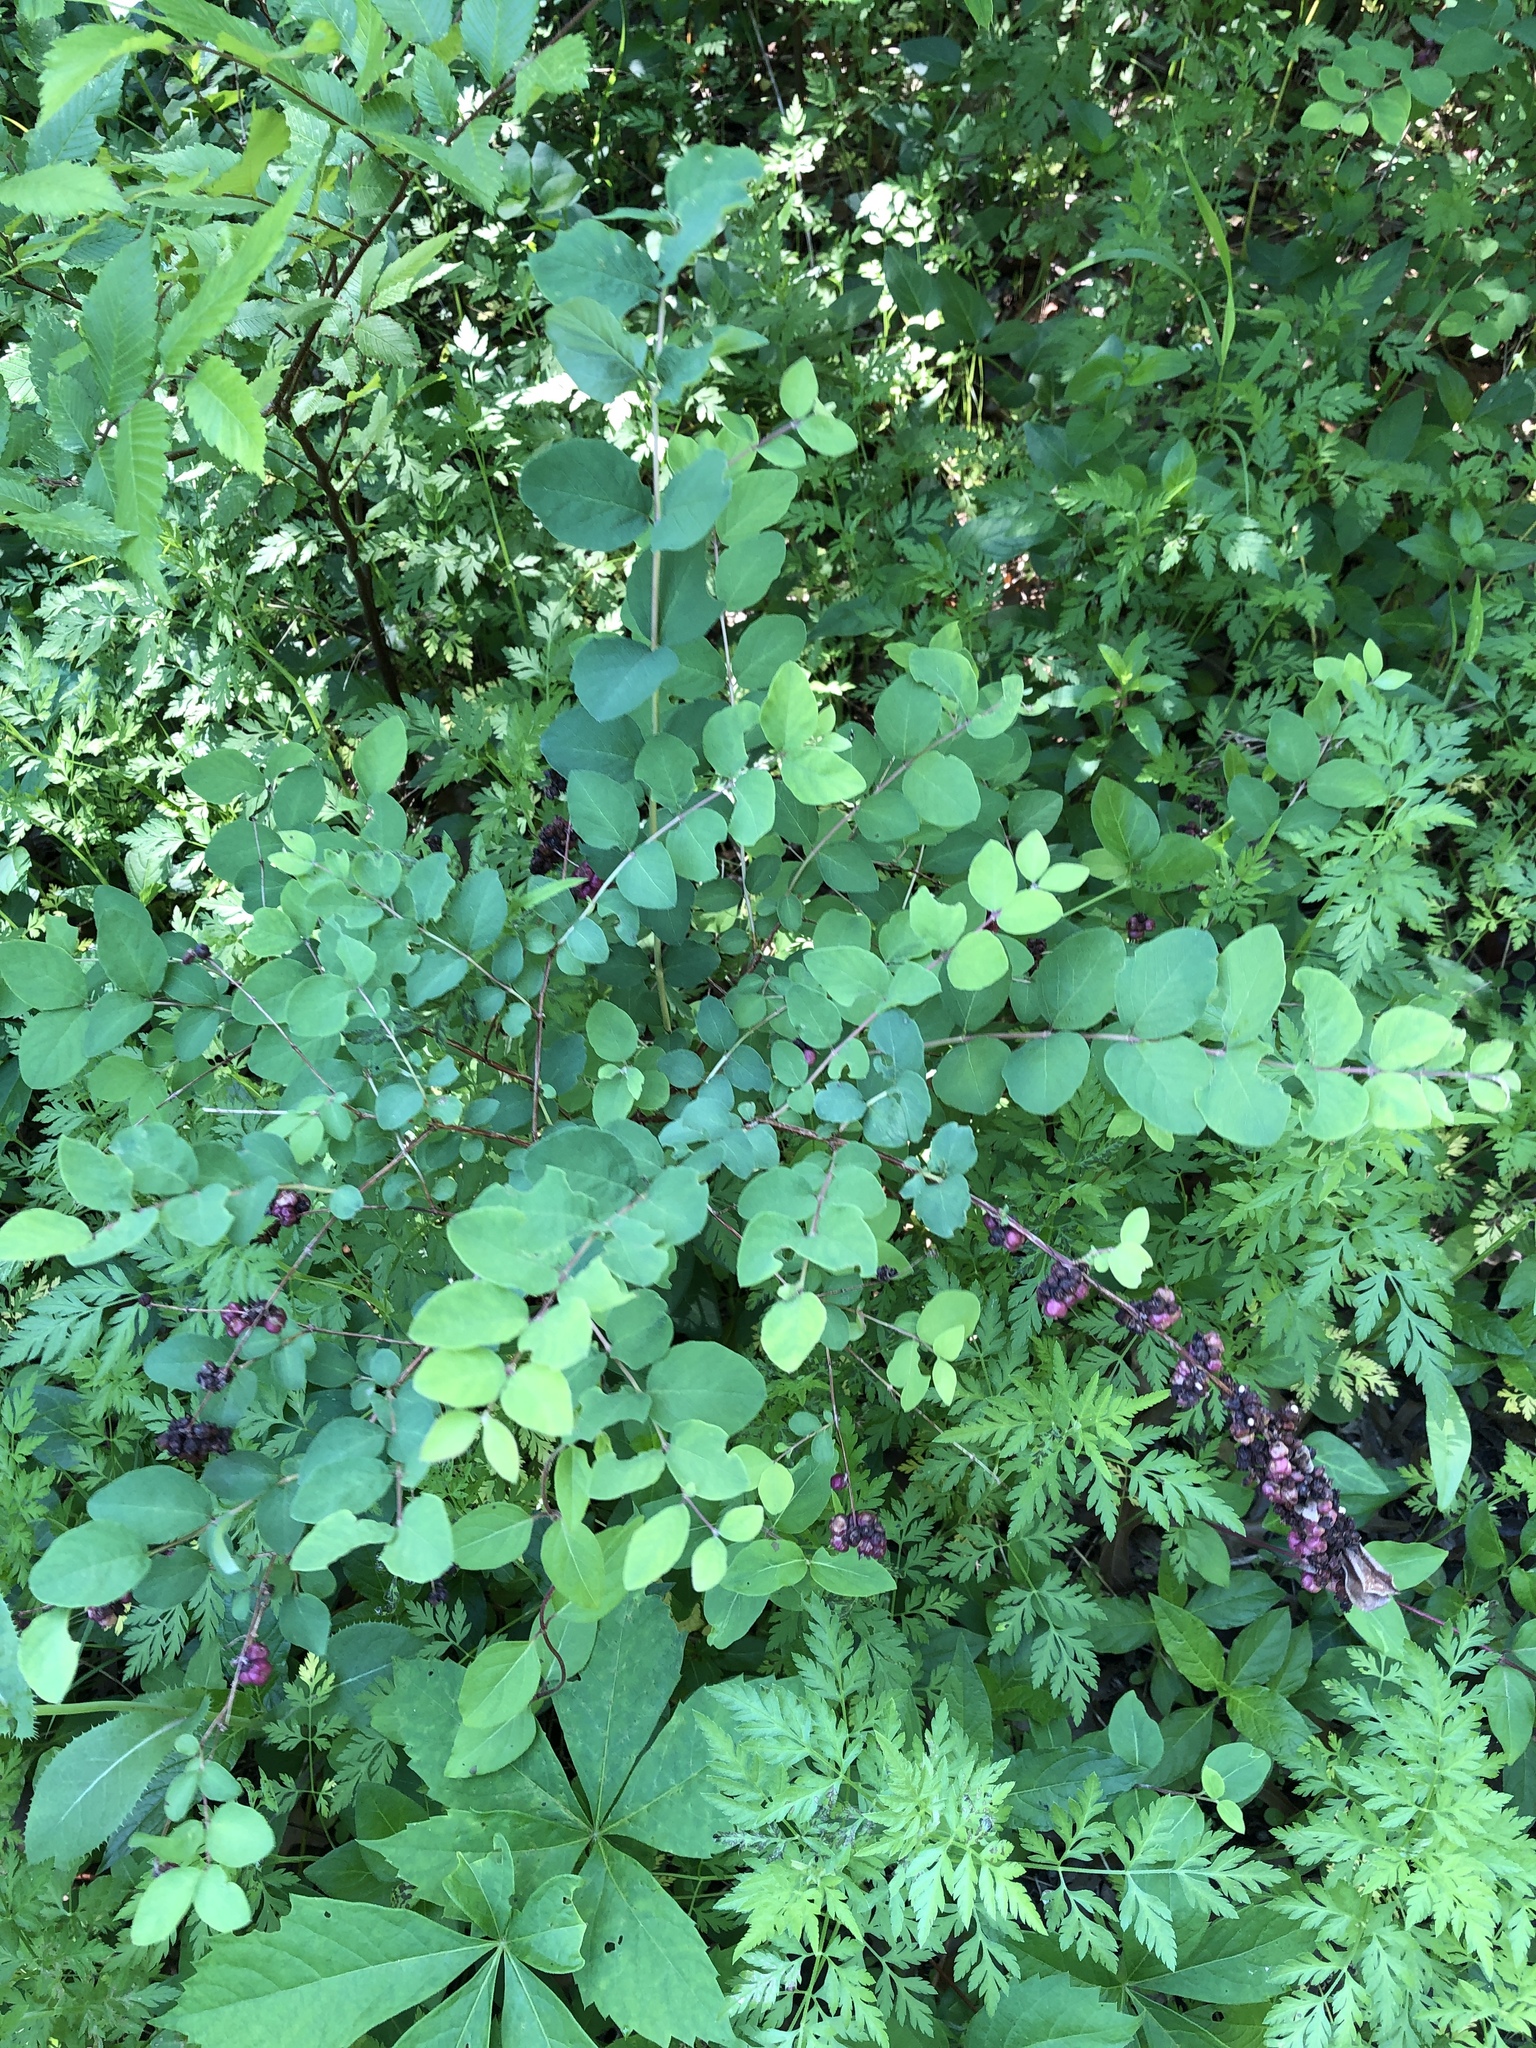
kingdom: Plantae
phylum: Tracheophyta
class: Magnoliopsida
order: Dipsacales
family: Caprifoliaceae
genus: Symphoricarpos
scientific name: Symphoricarpos orbiculatus
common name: Coralberry
